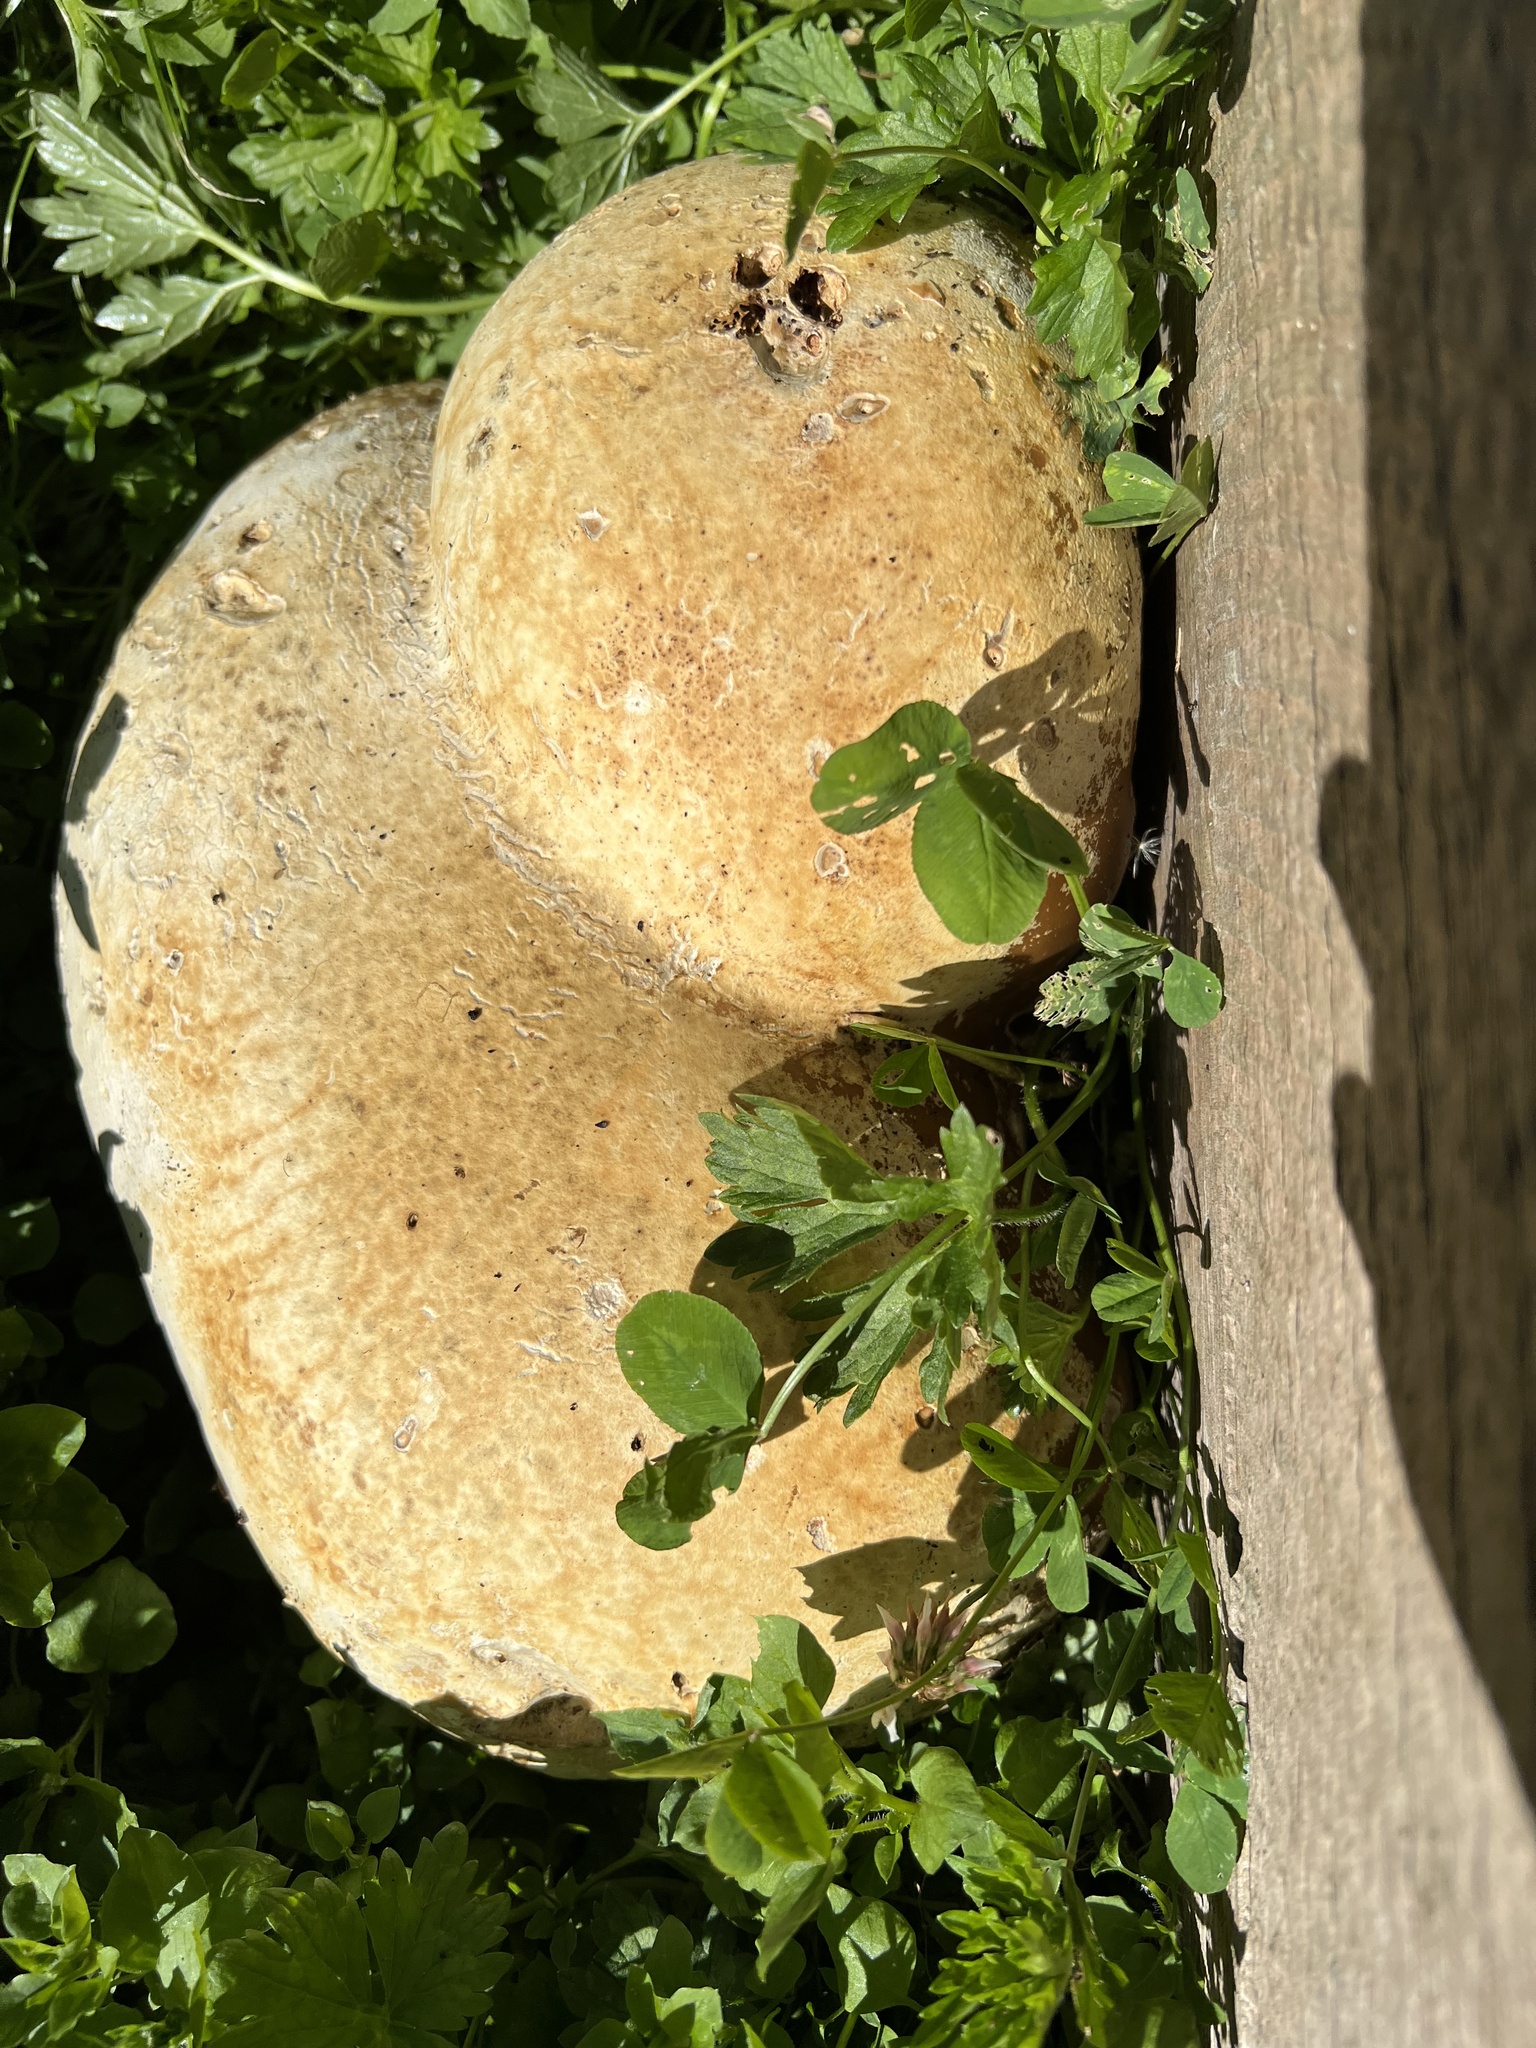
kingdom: Fungi
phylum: Basidiomycota
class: Agaricomycetes
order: Agaricales
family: Lycoperdaceae
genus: Calvatia
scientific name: Calvatia gigantea
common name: Giant puffball
